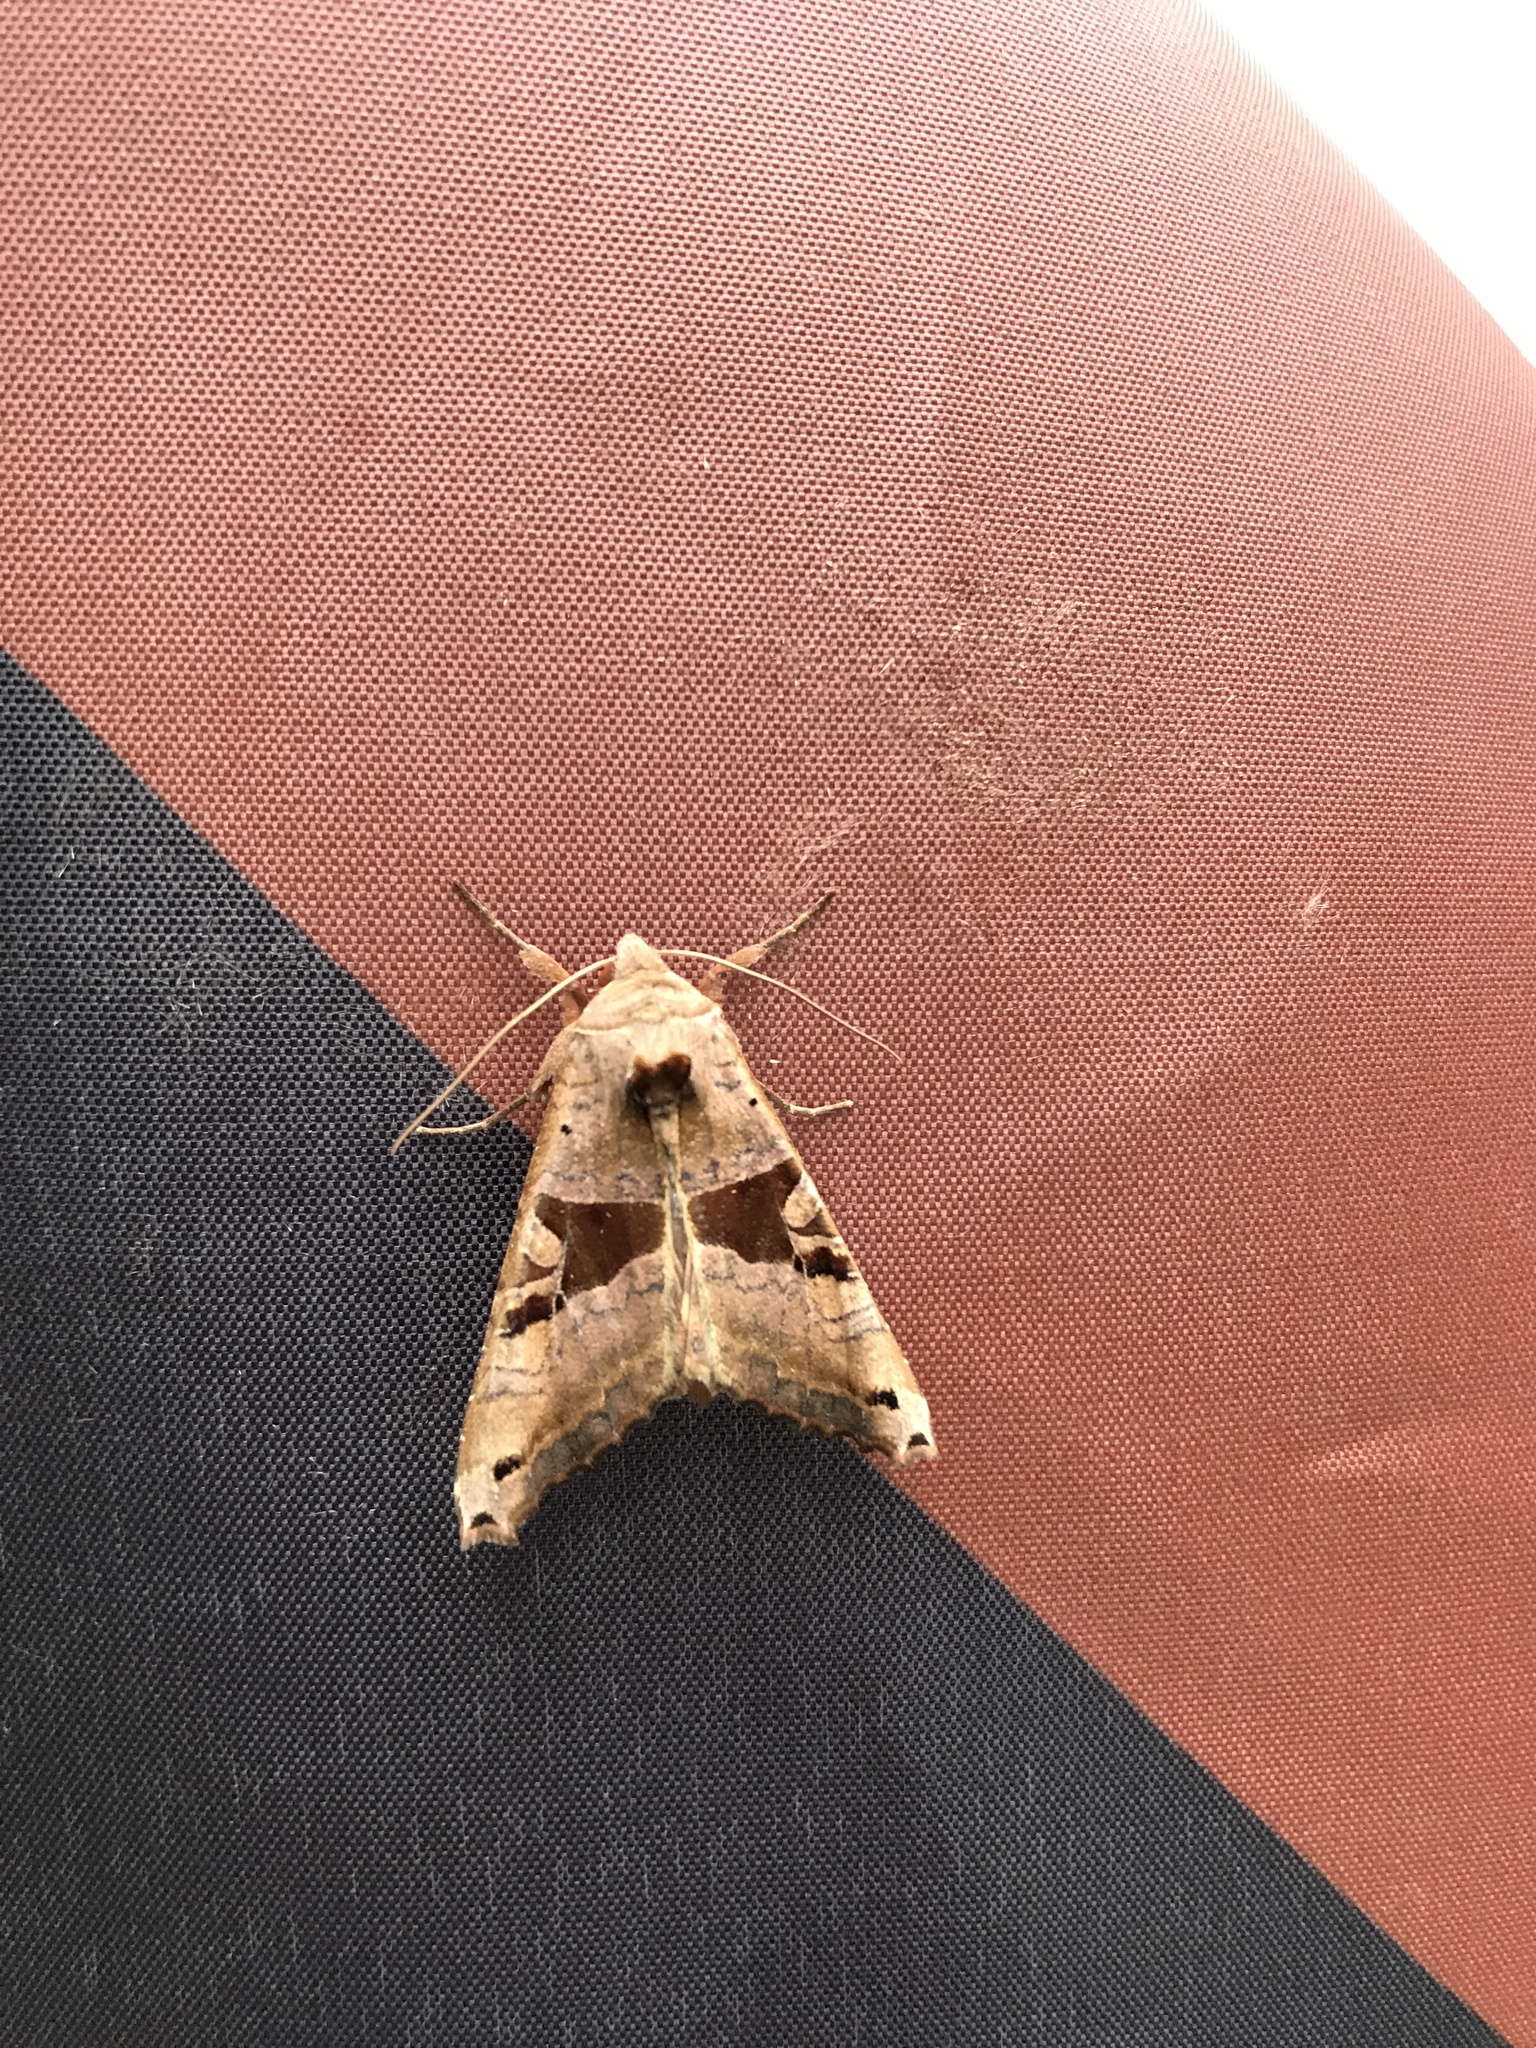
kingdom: Animalia
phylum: Arthropoda
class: Insecta
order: Lepidoptera
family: Noctuidae
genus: Phlogophora
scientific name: Phlogophora periculosa
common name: Brown angle shades
